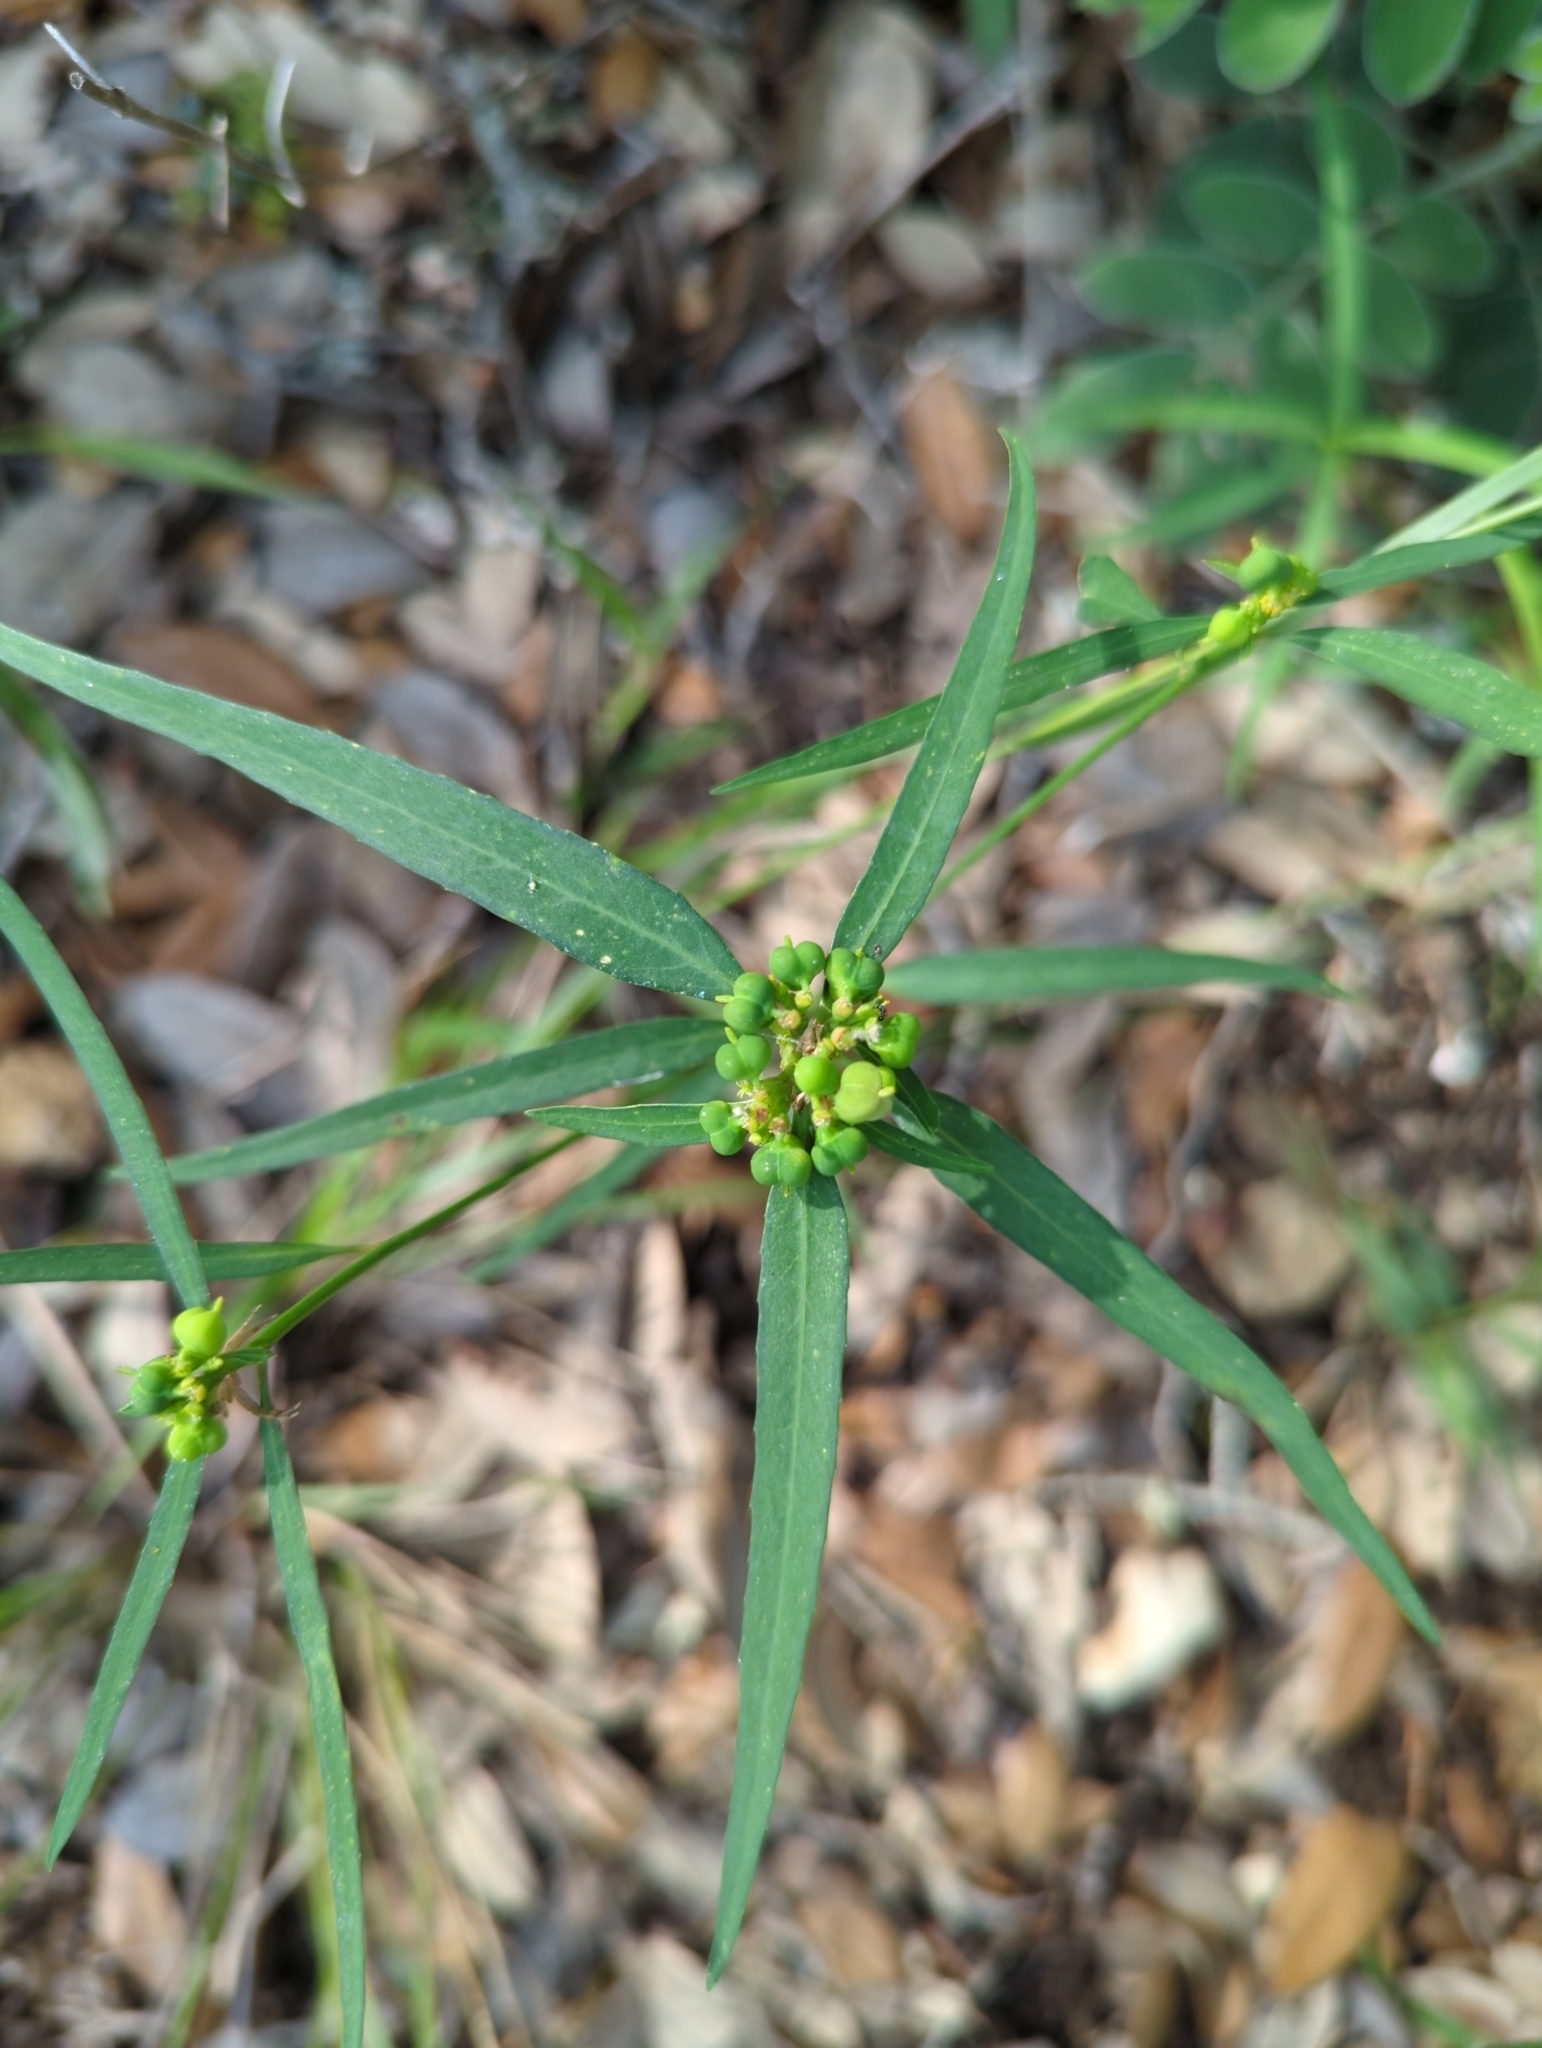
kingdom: Plantae
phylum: Tracheophyta
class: Magnoliopsida
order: Malpighiales
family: Euphorbiaceae
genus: Euphorbia
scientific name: Euphorbia heterophylla
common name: Mexican fireplant
